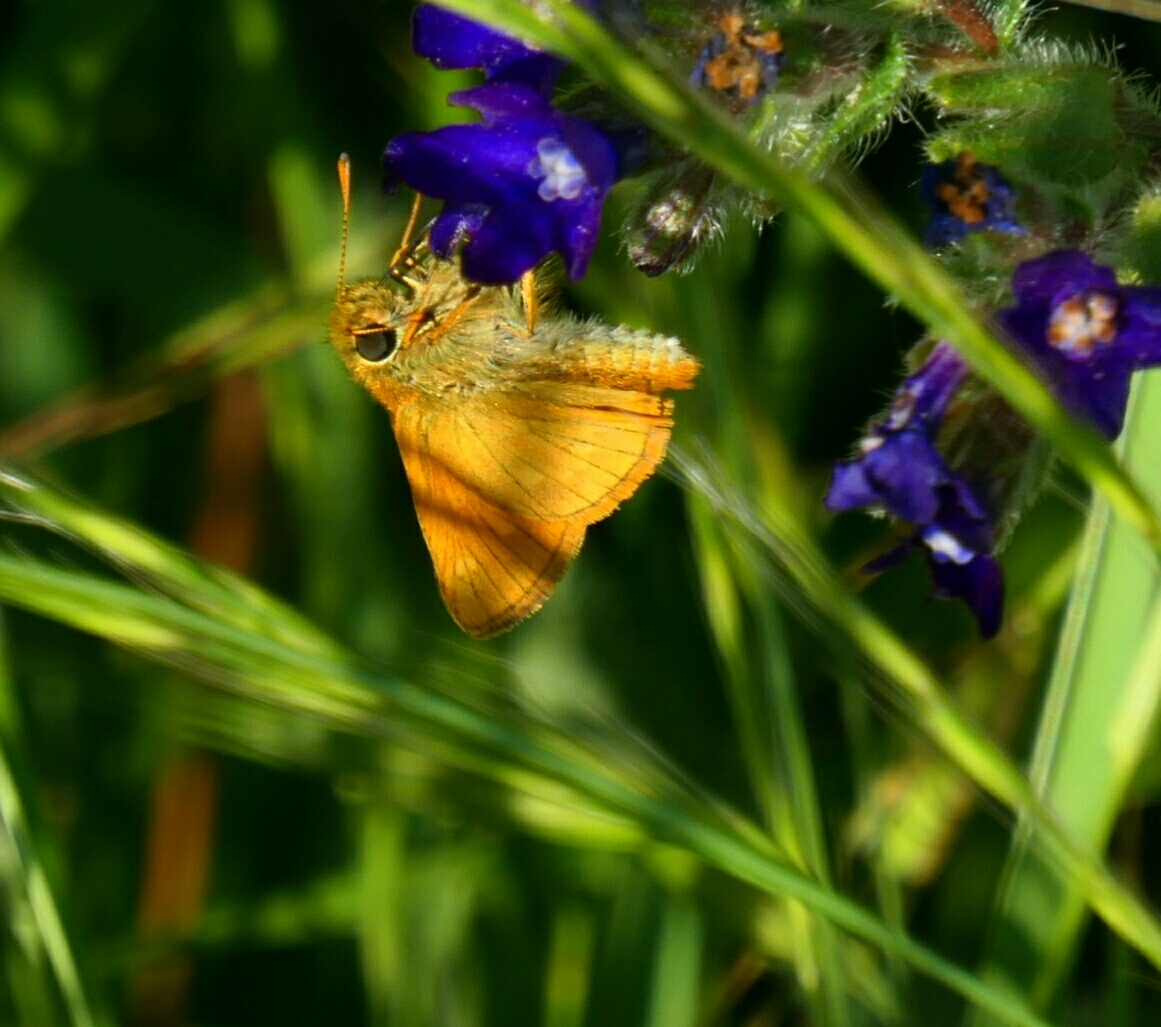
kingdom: Animalia
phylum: Arthropoda
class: Insecta
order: Lepidoptera
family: Hesperiidae
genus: Ochlodes
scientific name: Ochlodes venata
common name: Large skipper
